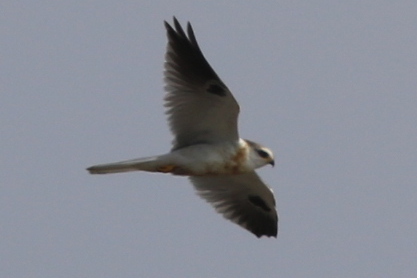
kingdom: Animalia
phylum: Chordata
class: Aves
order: Accipitriformes
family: Accipitridae
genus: Elanus
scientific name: Elanus leucurus
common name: White-tailed kite
